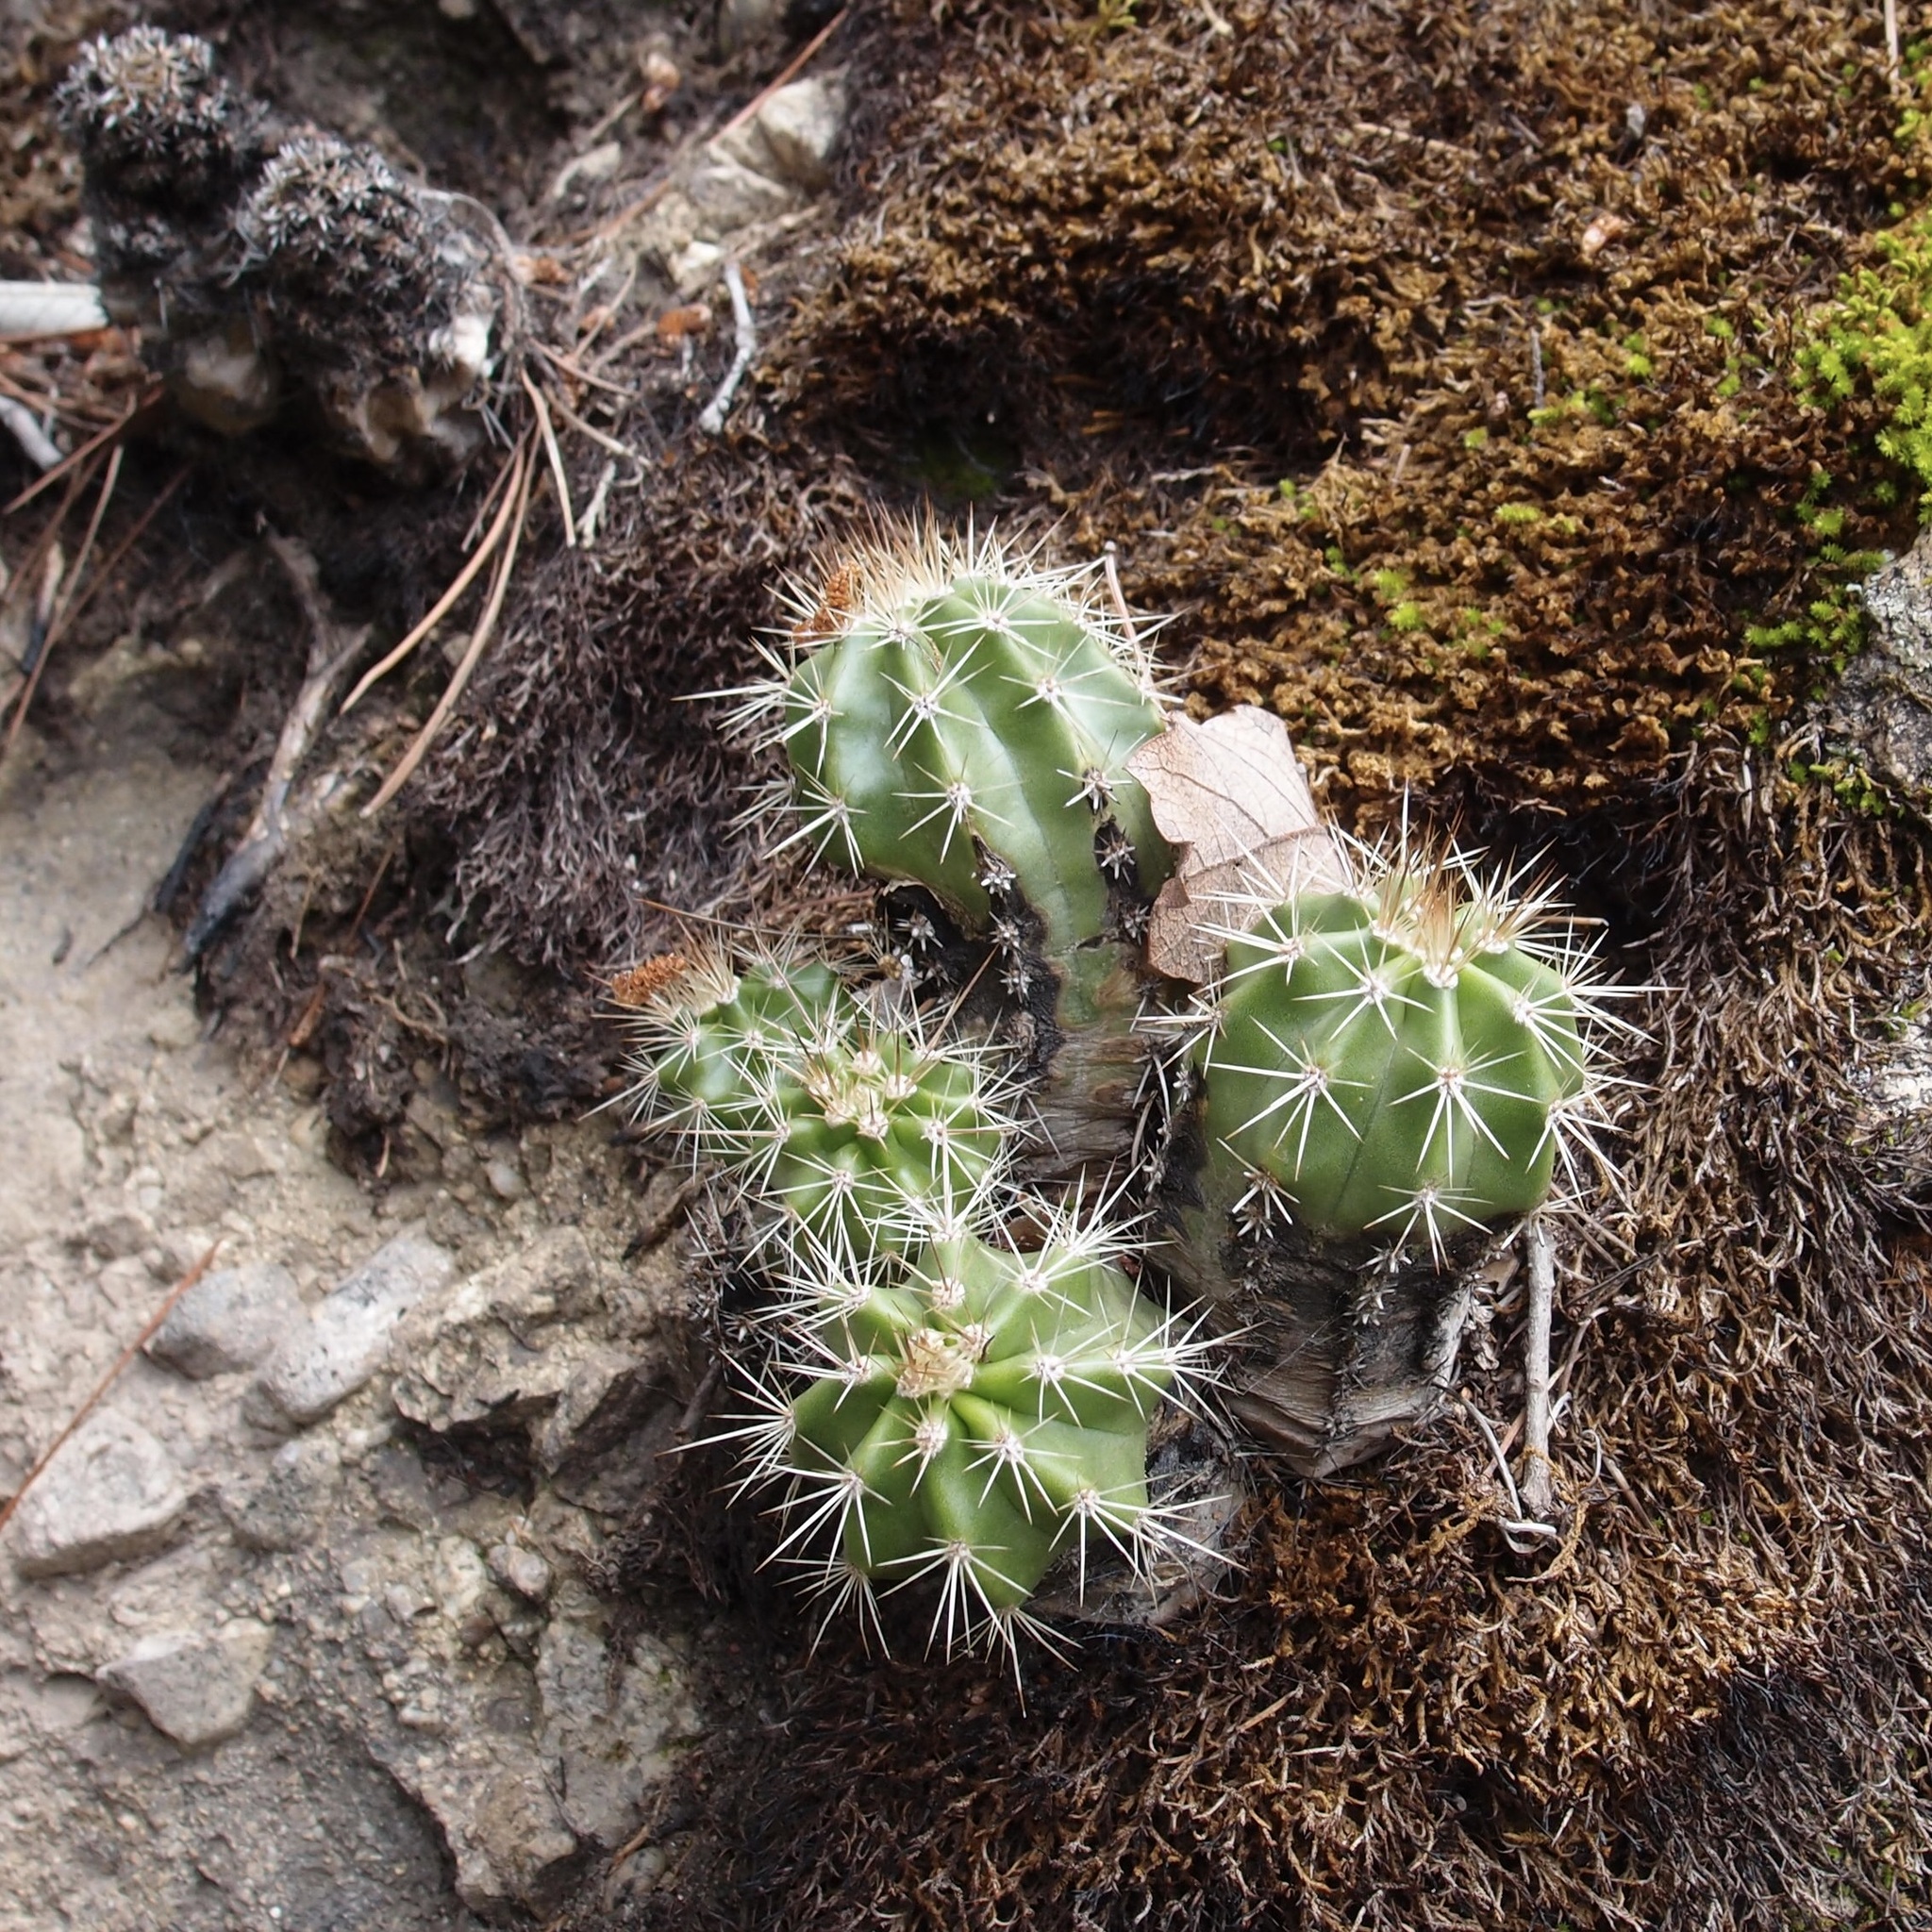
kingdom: Plantae
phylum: Tracheophyta
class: Magnoliopsida
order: Caryophyllales
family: Cactaceae
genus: Echinocereus
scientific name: Echinocereus coccineus
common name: Scarlet hedgehog cactus
